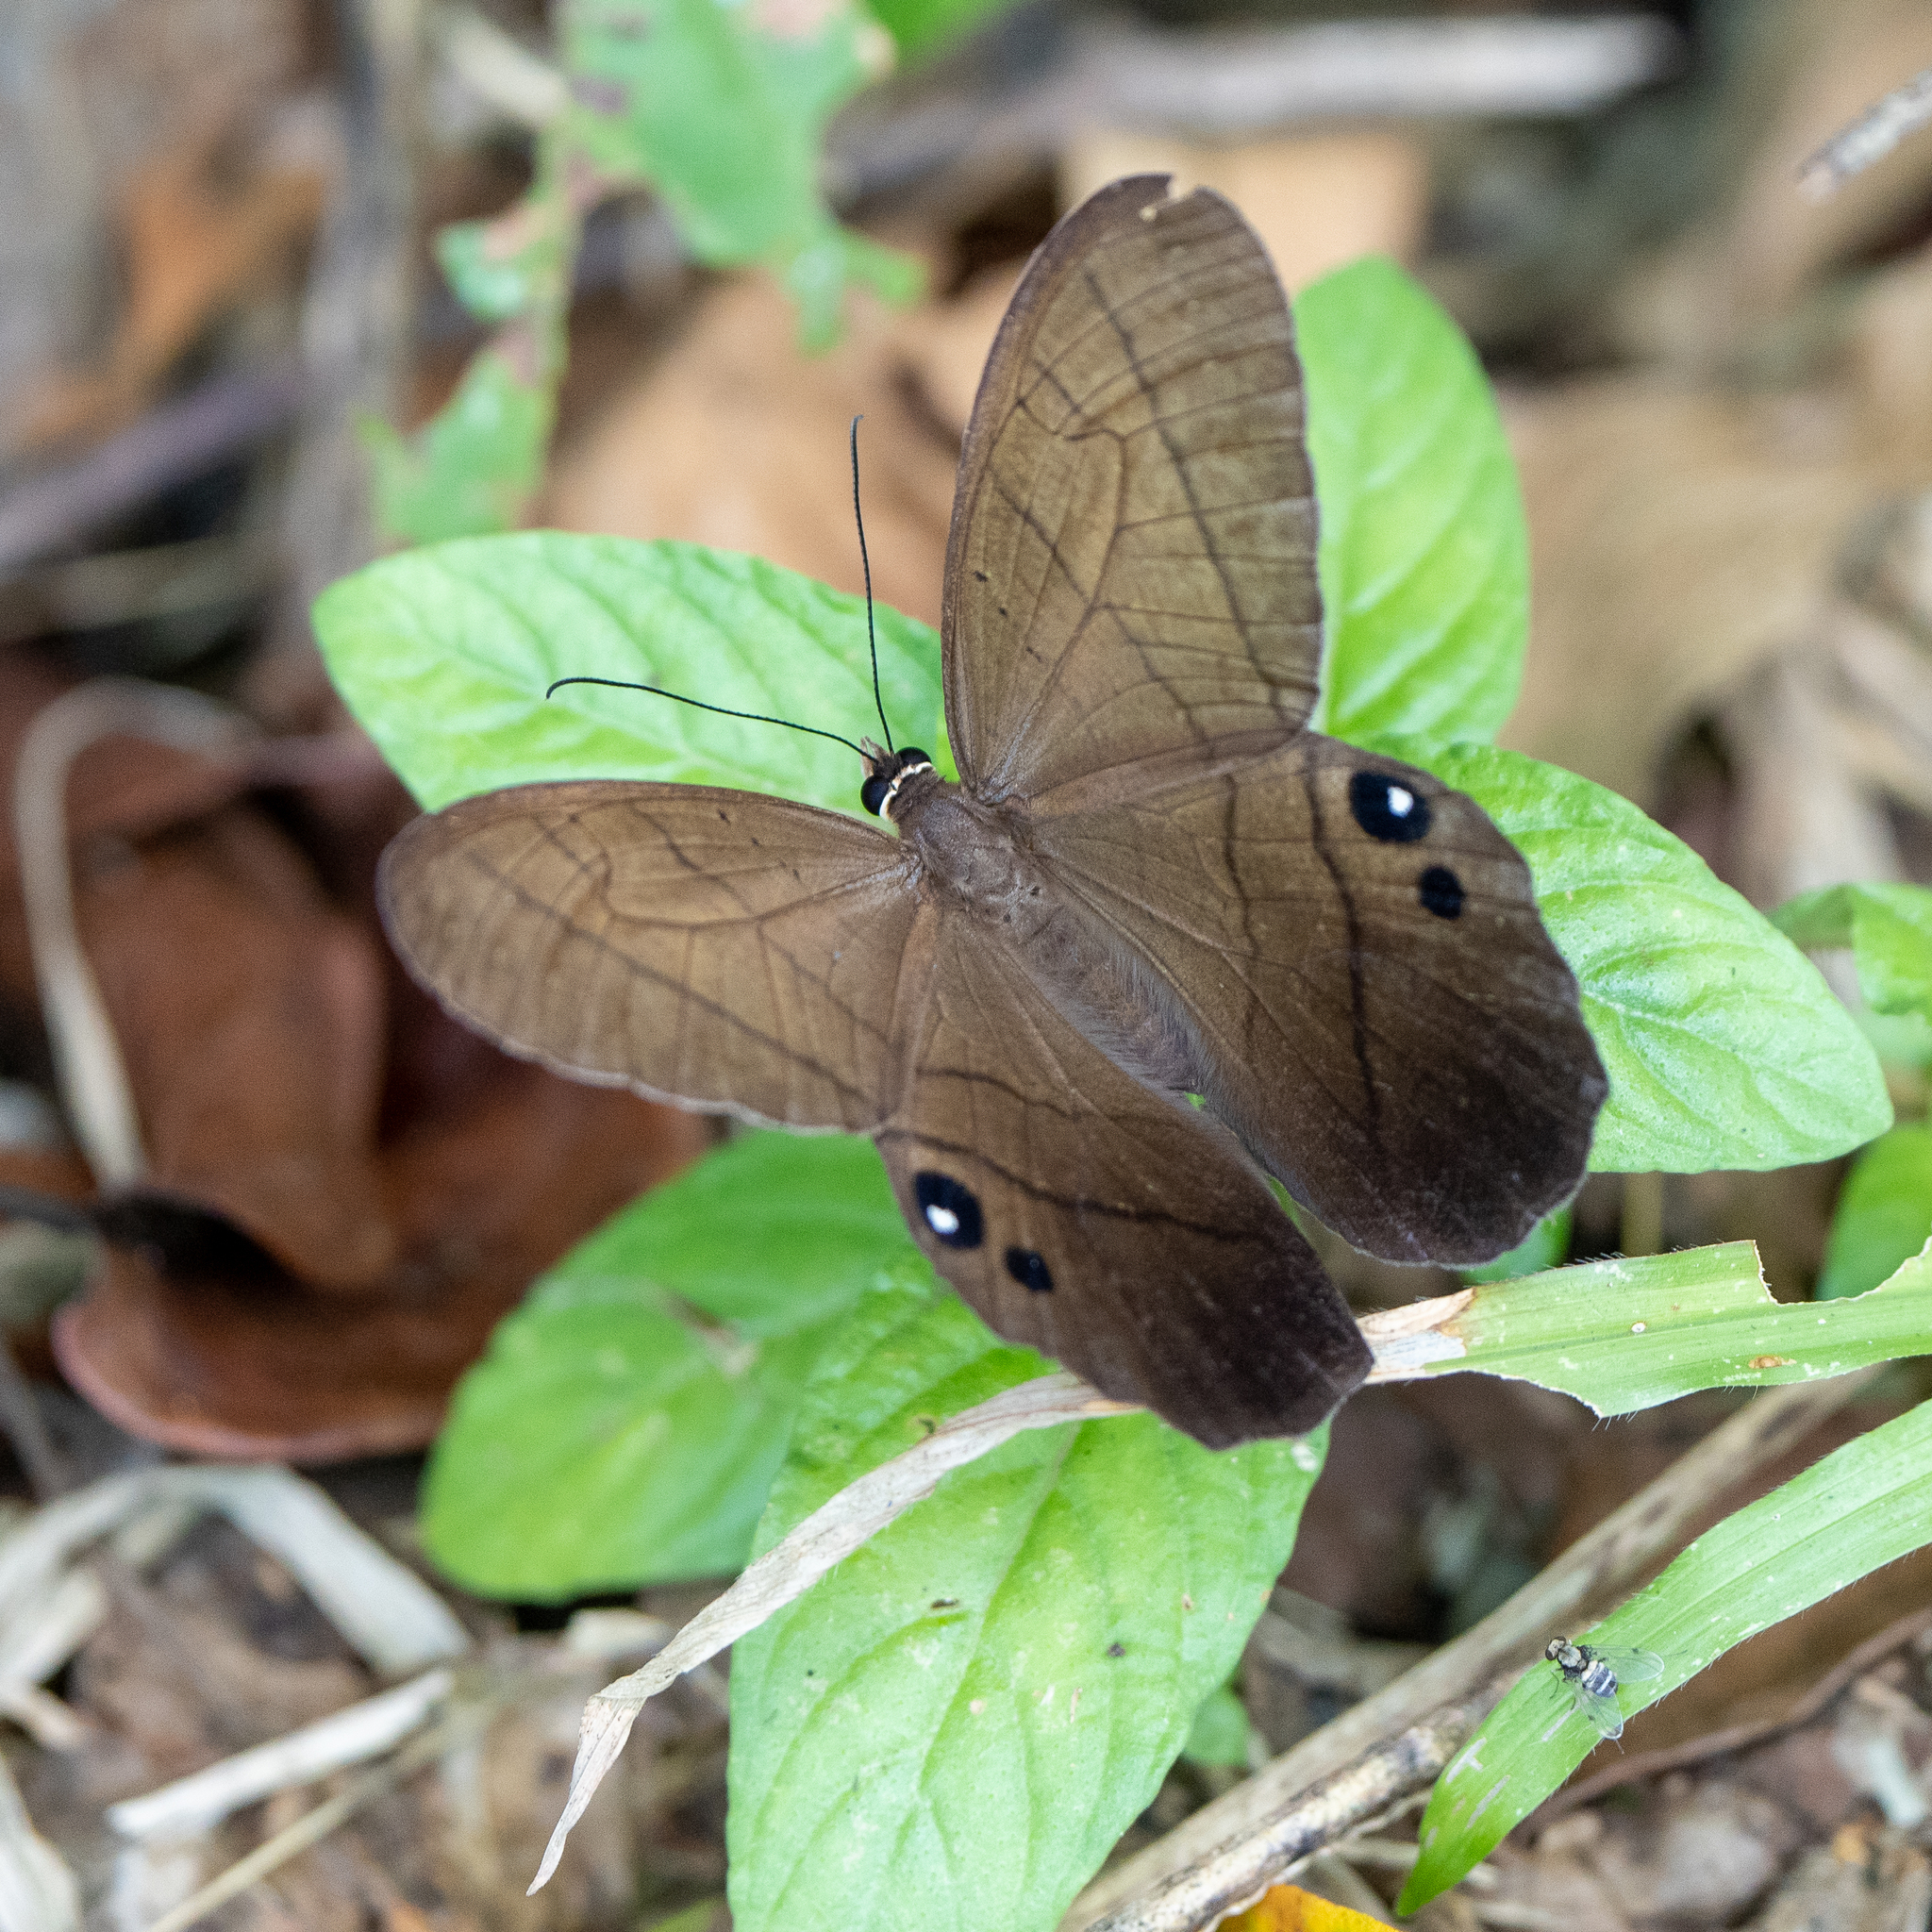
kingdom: Animalia
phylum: Arthropoda
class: Insecta
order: Lepidoptera
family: Nymphalidae
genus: Pierella
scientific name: Pierella luna
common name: Moon satyr
